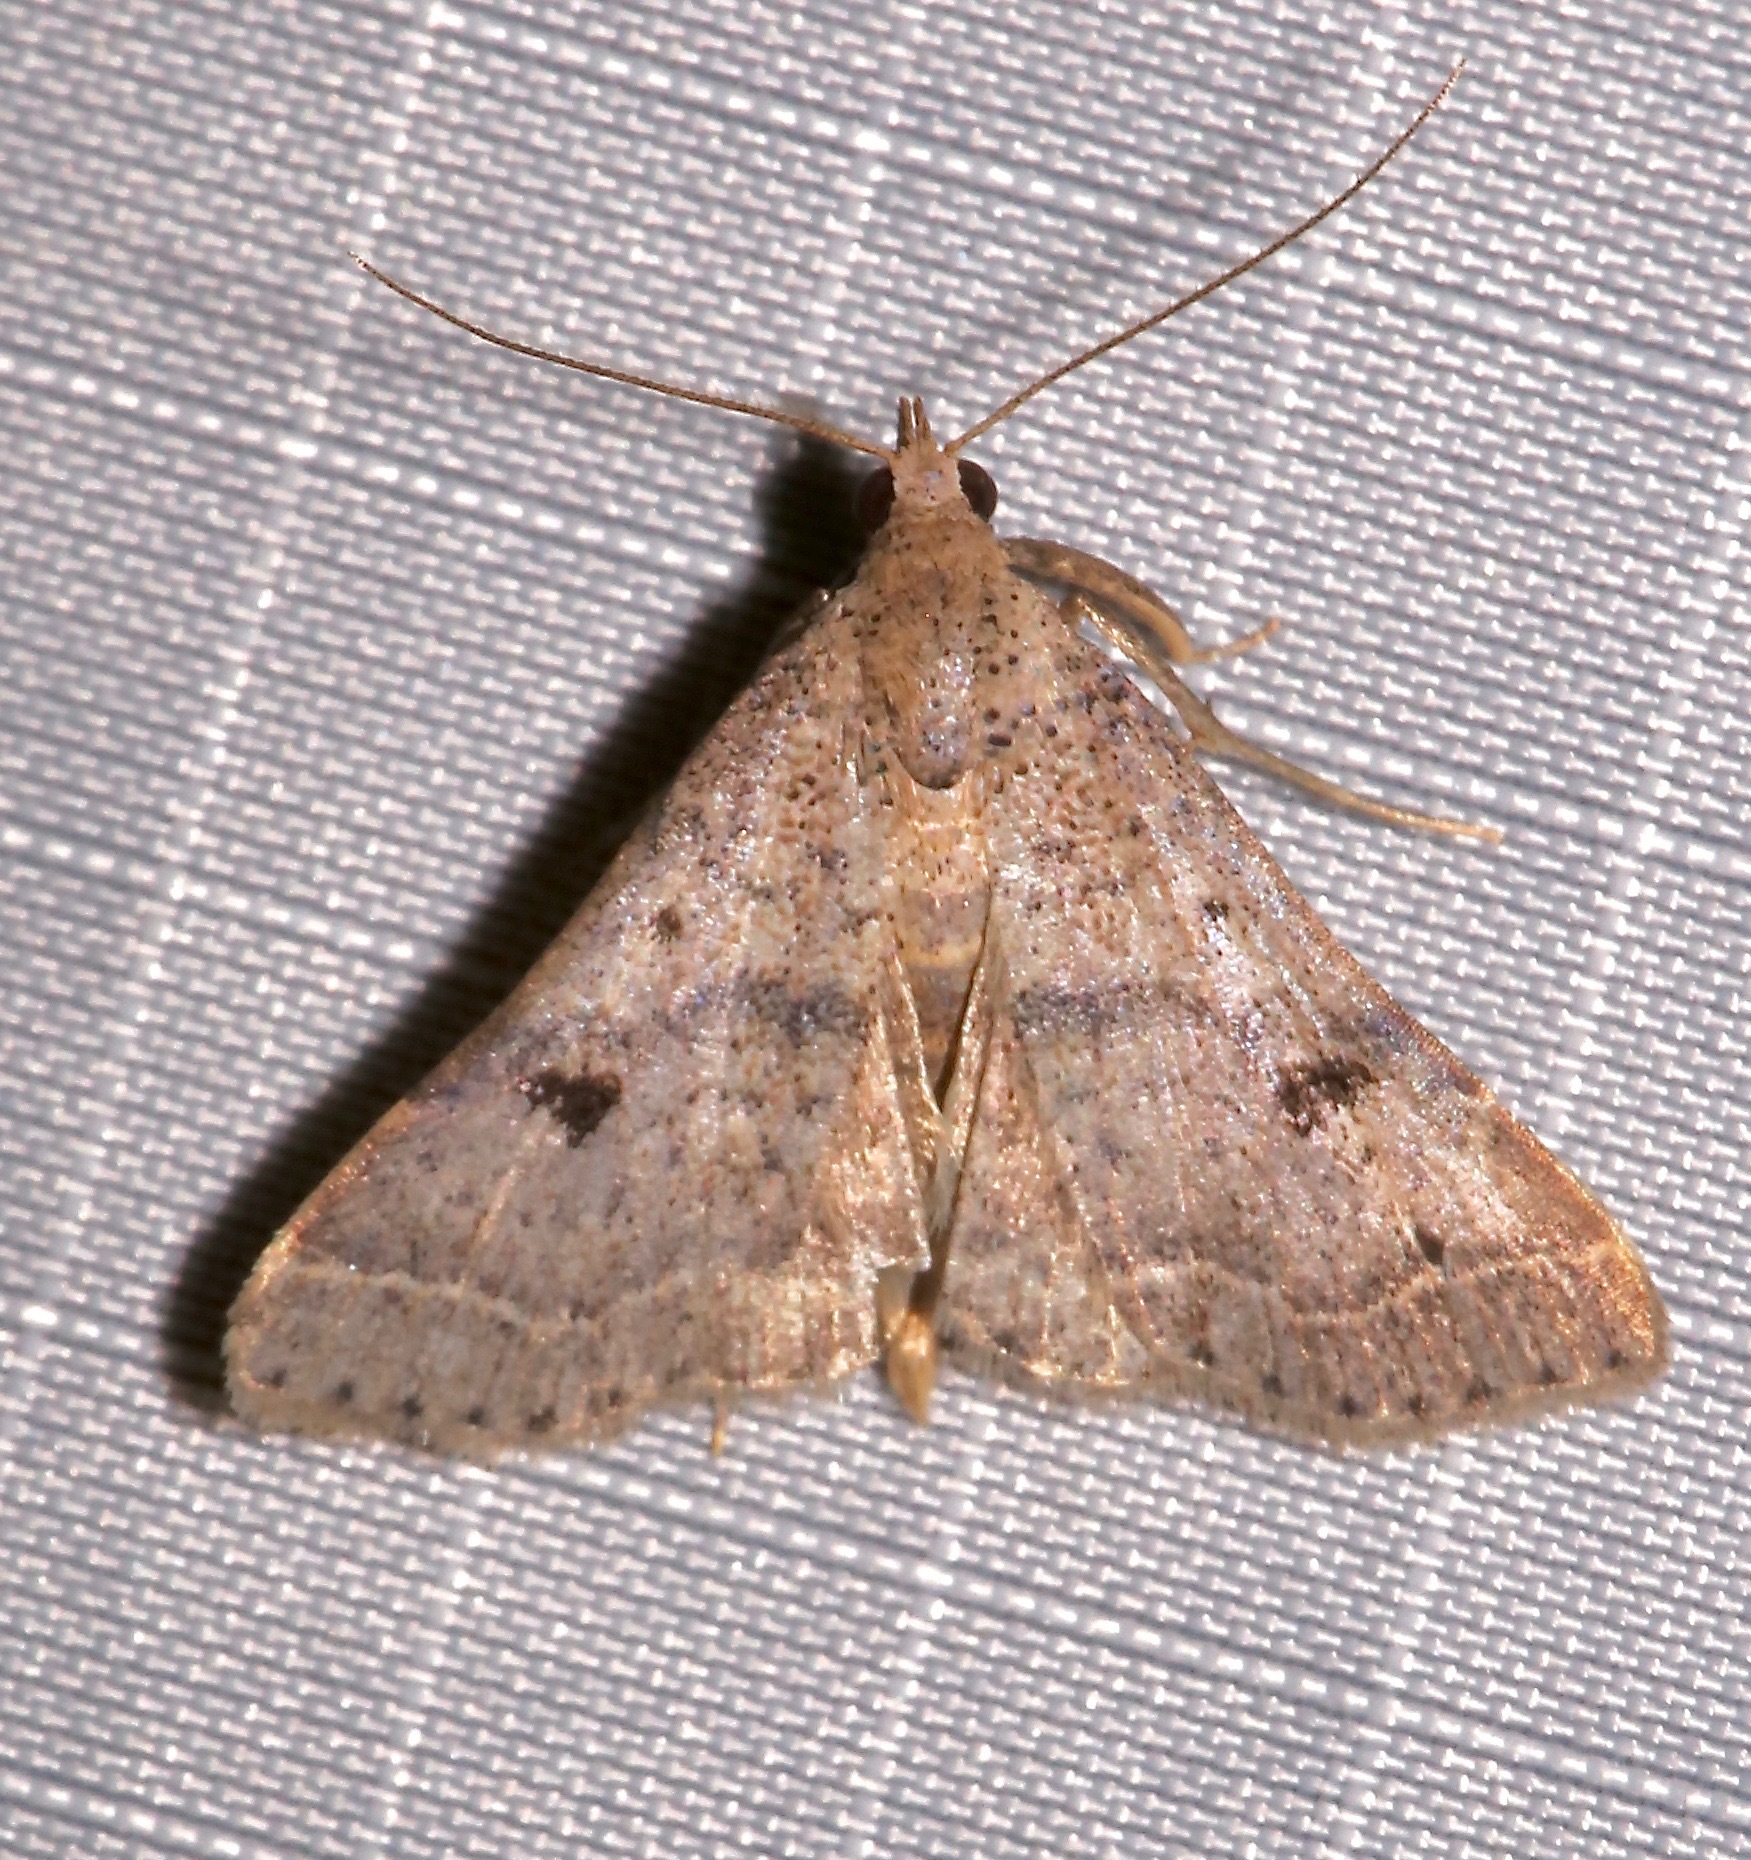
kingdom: Animalia
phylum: Arthropoda
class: Insecta
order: Lepidoptera
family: Erebidae
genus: Bleptina
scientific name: Bleptina caradrinalis
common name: Bent-winged owlet
